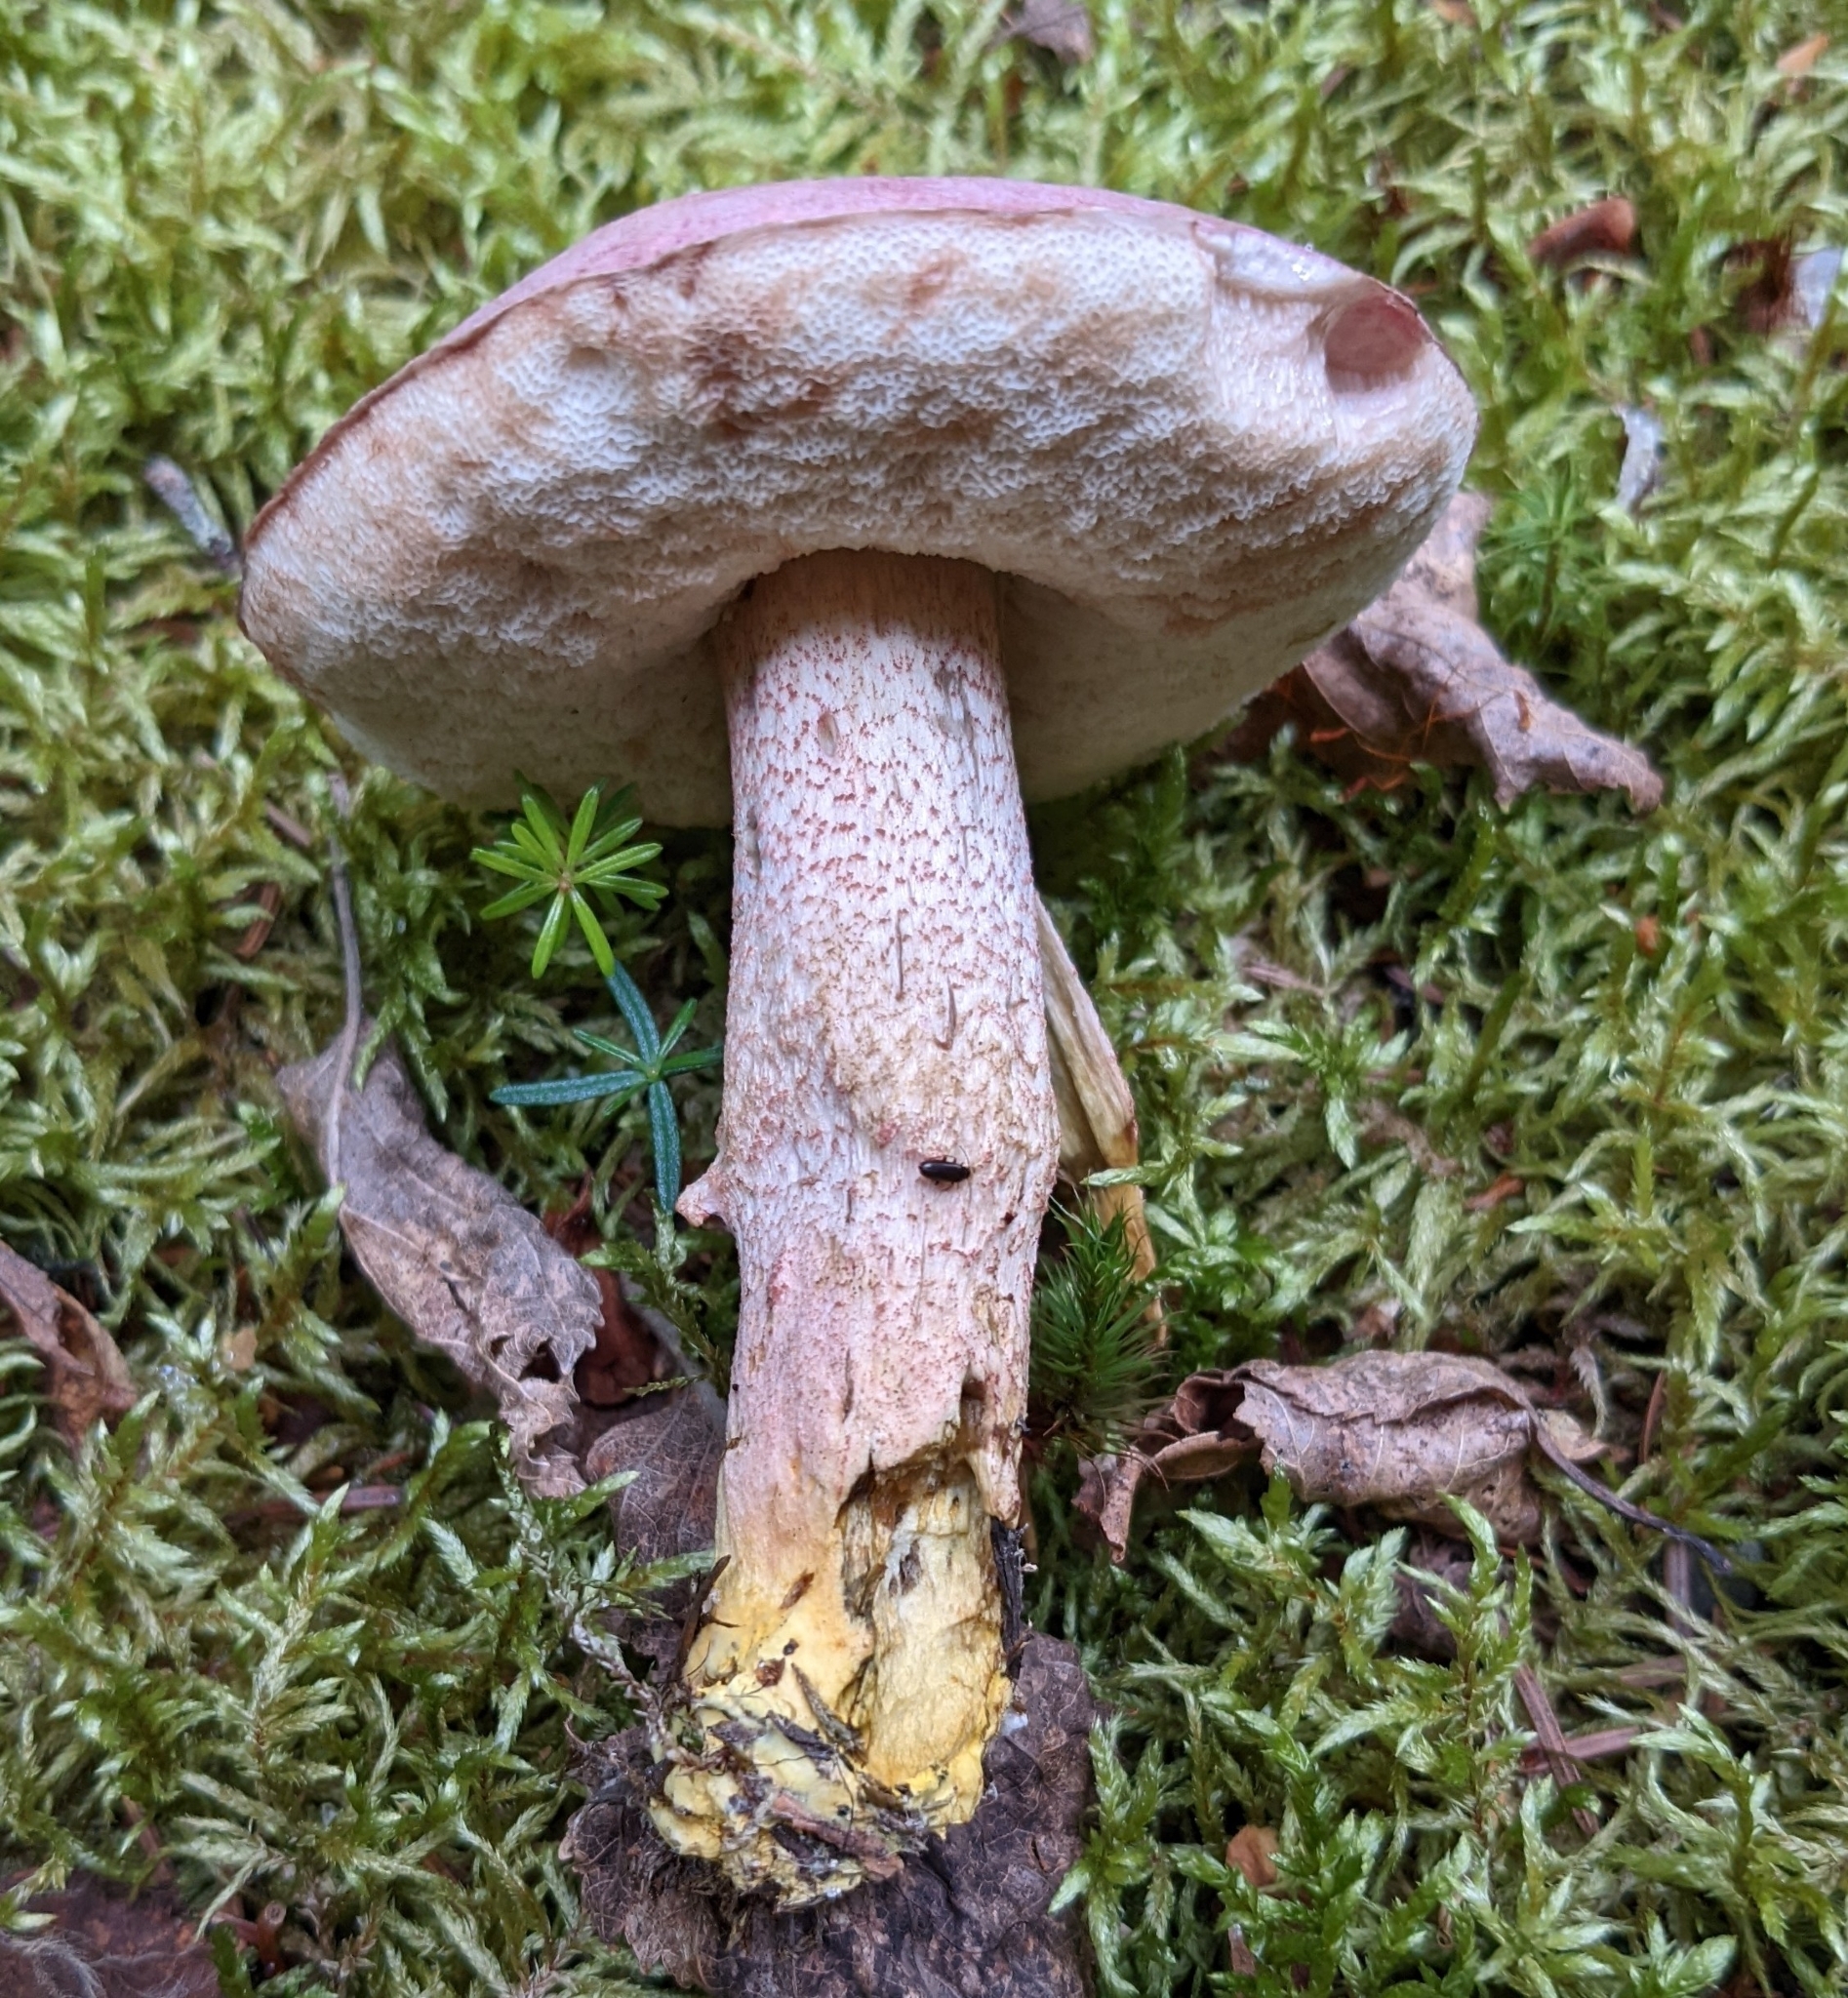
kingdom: Fungi
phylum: Basidiomycota
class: Agaricomycetes
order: Boletales
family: Boletaceae
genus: Harrya
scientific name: Harrya chromipes
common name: Chrome-footed bolete
